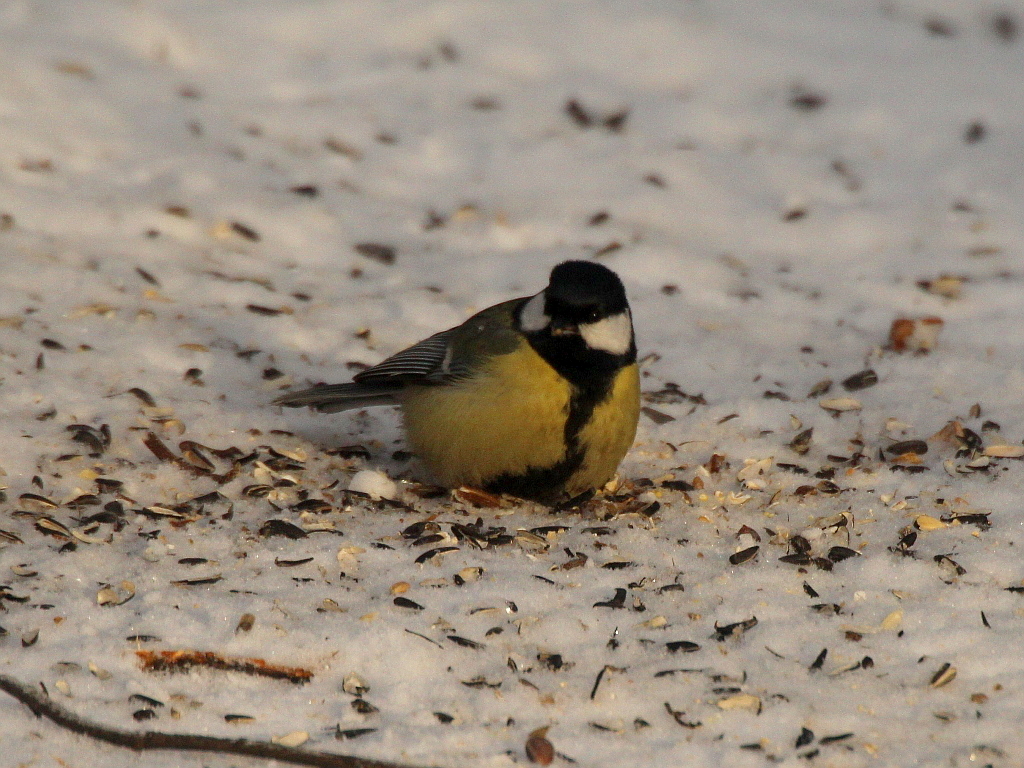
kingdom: Animalia
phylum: Chordata
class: Aves
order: Passeriformes
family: Paridae
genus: Parus
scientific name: Parus major
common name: Great tit
